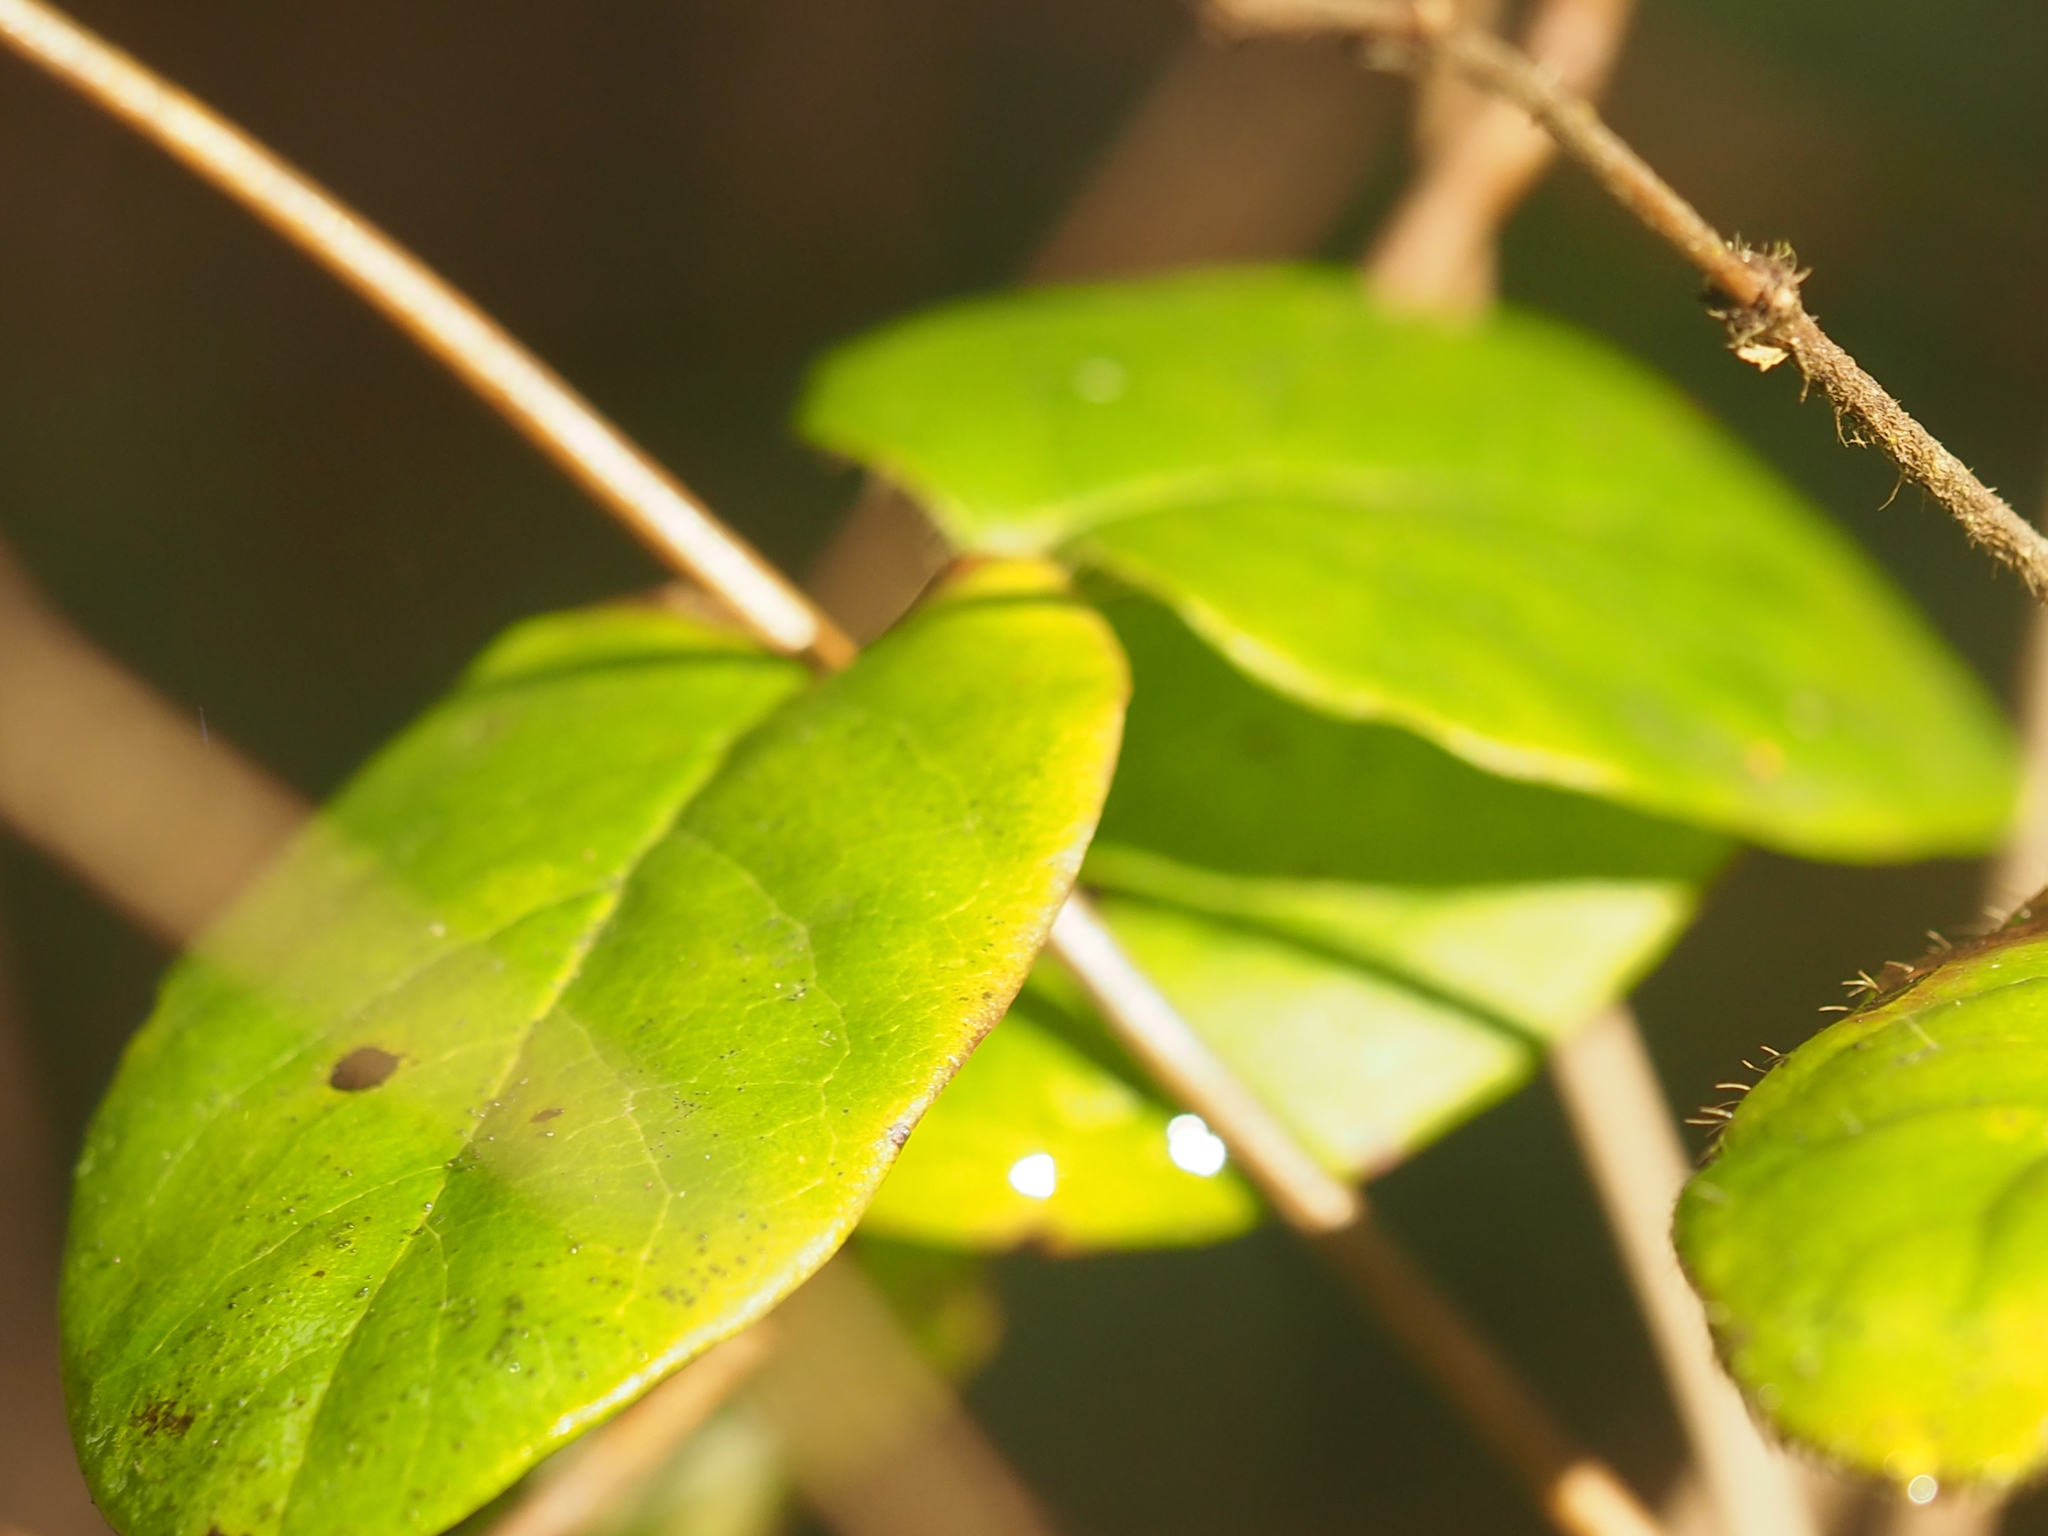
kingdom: Plantae
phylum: Tracheophyta
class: Magnoliopsida
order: Dipsacales
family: Caprifoliaceae
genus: Lonicera
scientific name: Lonicera hispidula
